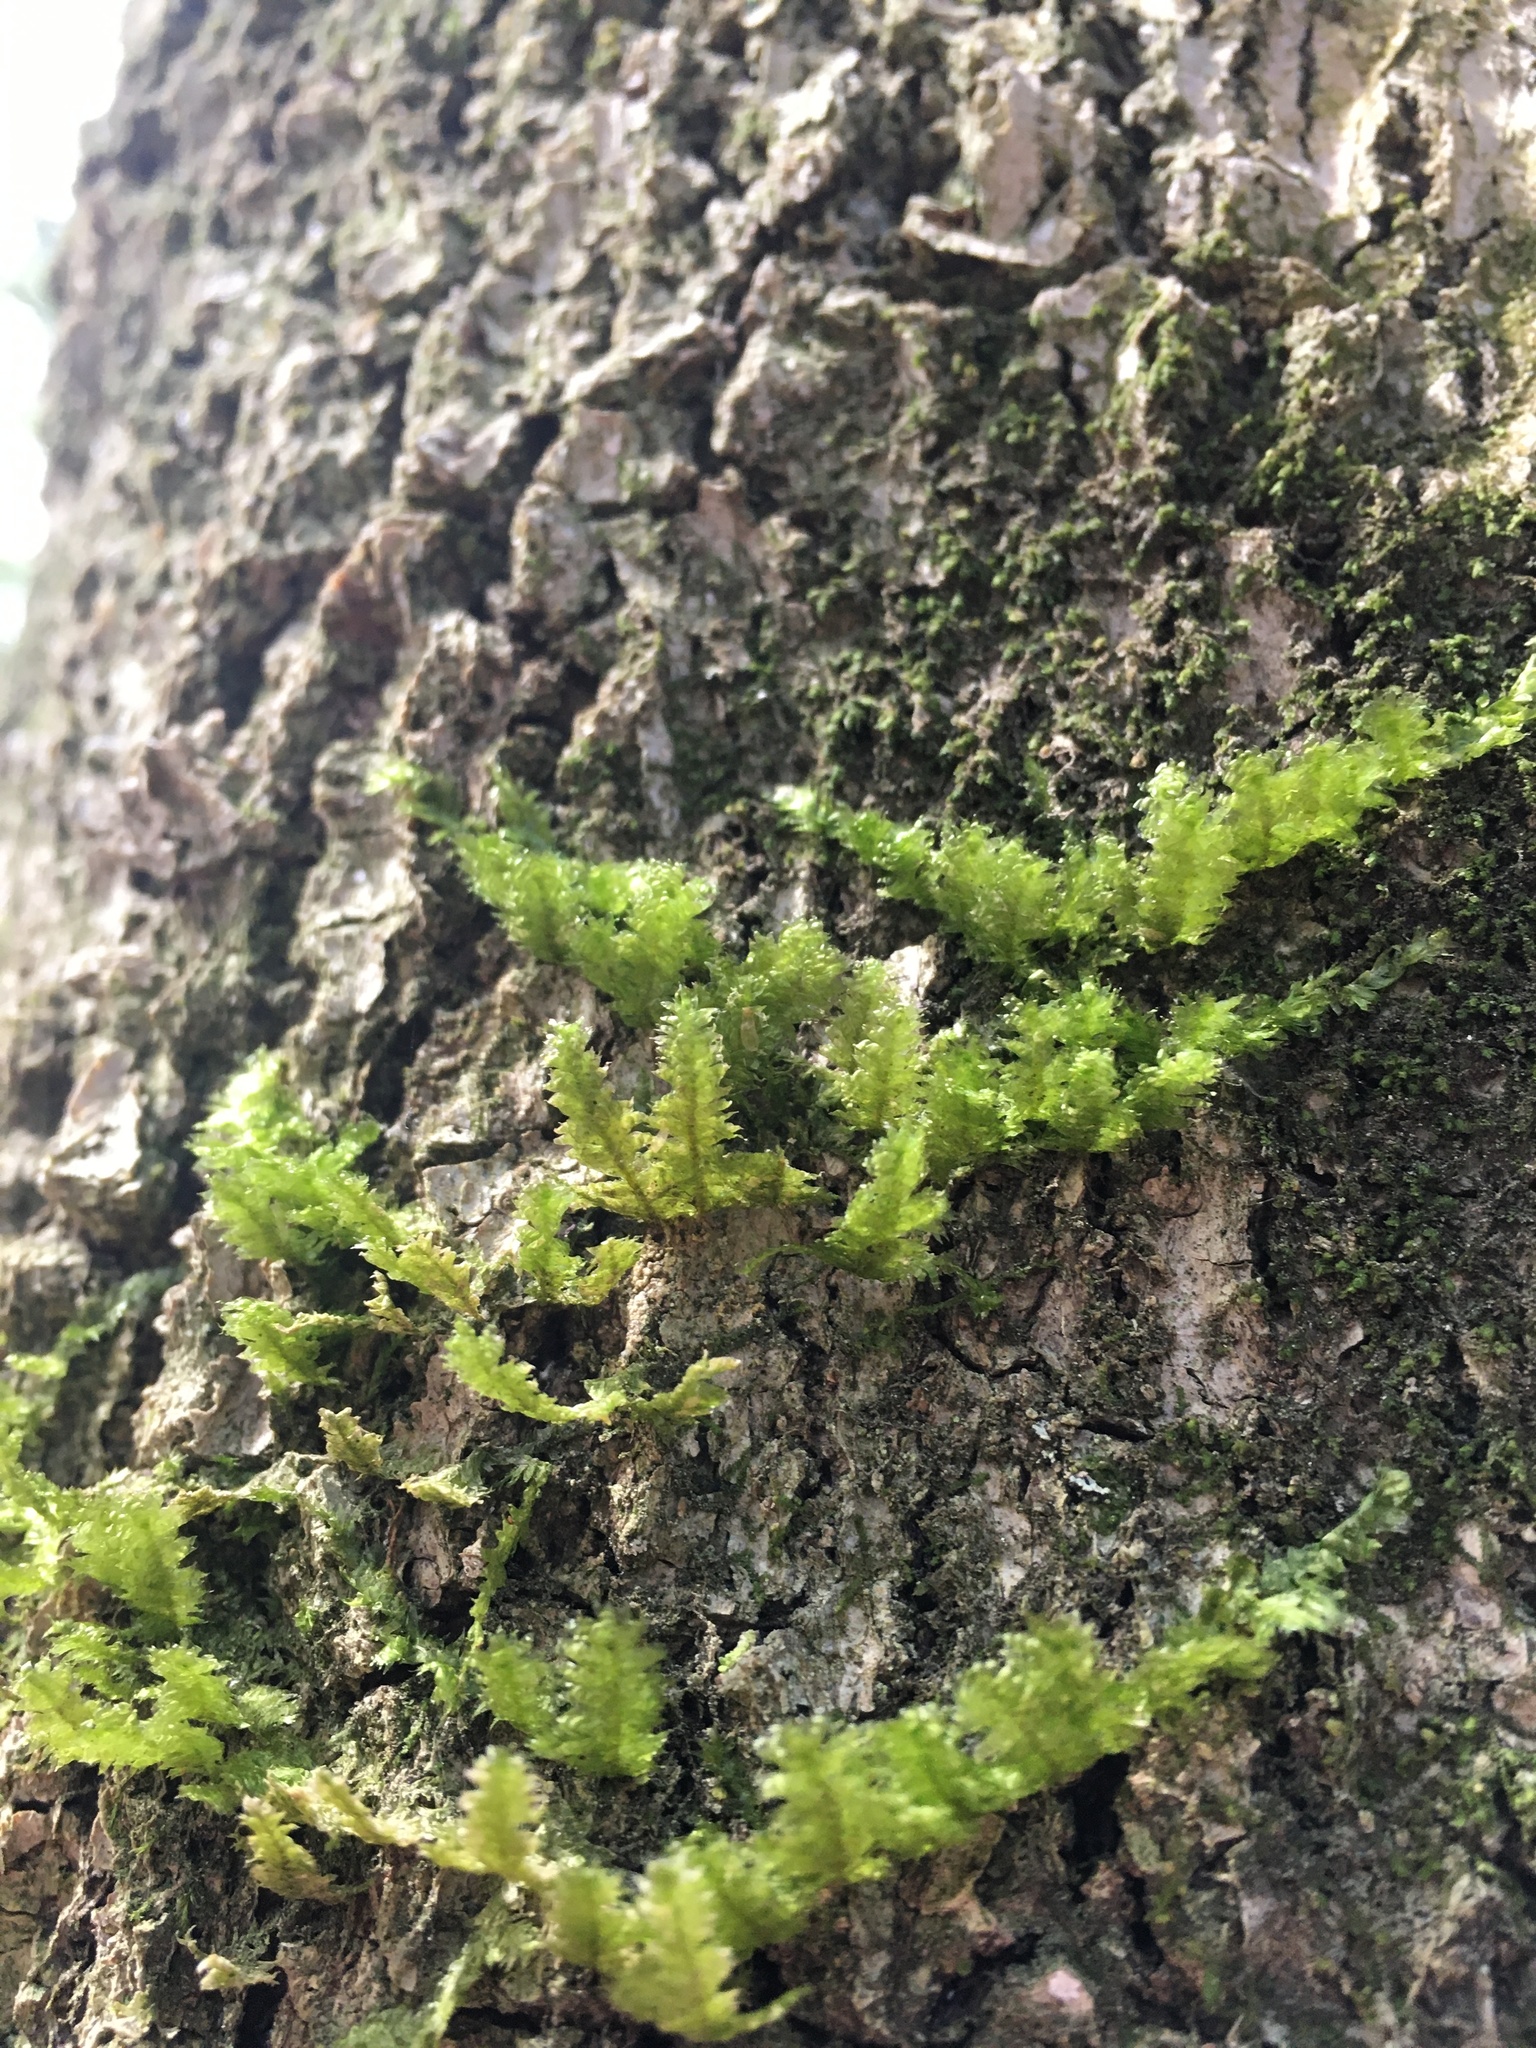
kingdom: Plantae
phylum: Bryophyta
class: Bryopsida
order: Hypnales
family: Neckeraceae
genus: Neckera
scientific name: Neckera pennata
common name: Feathery neckera
